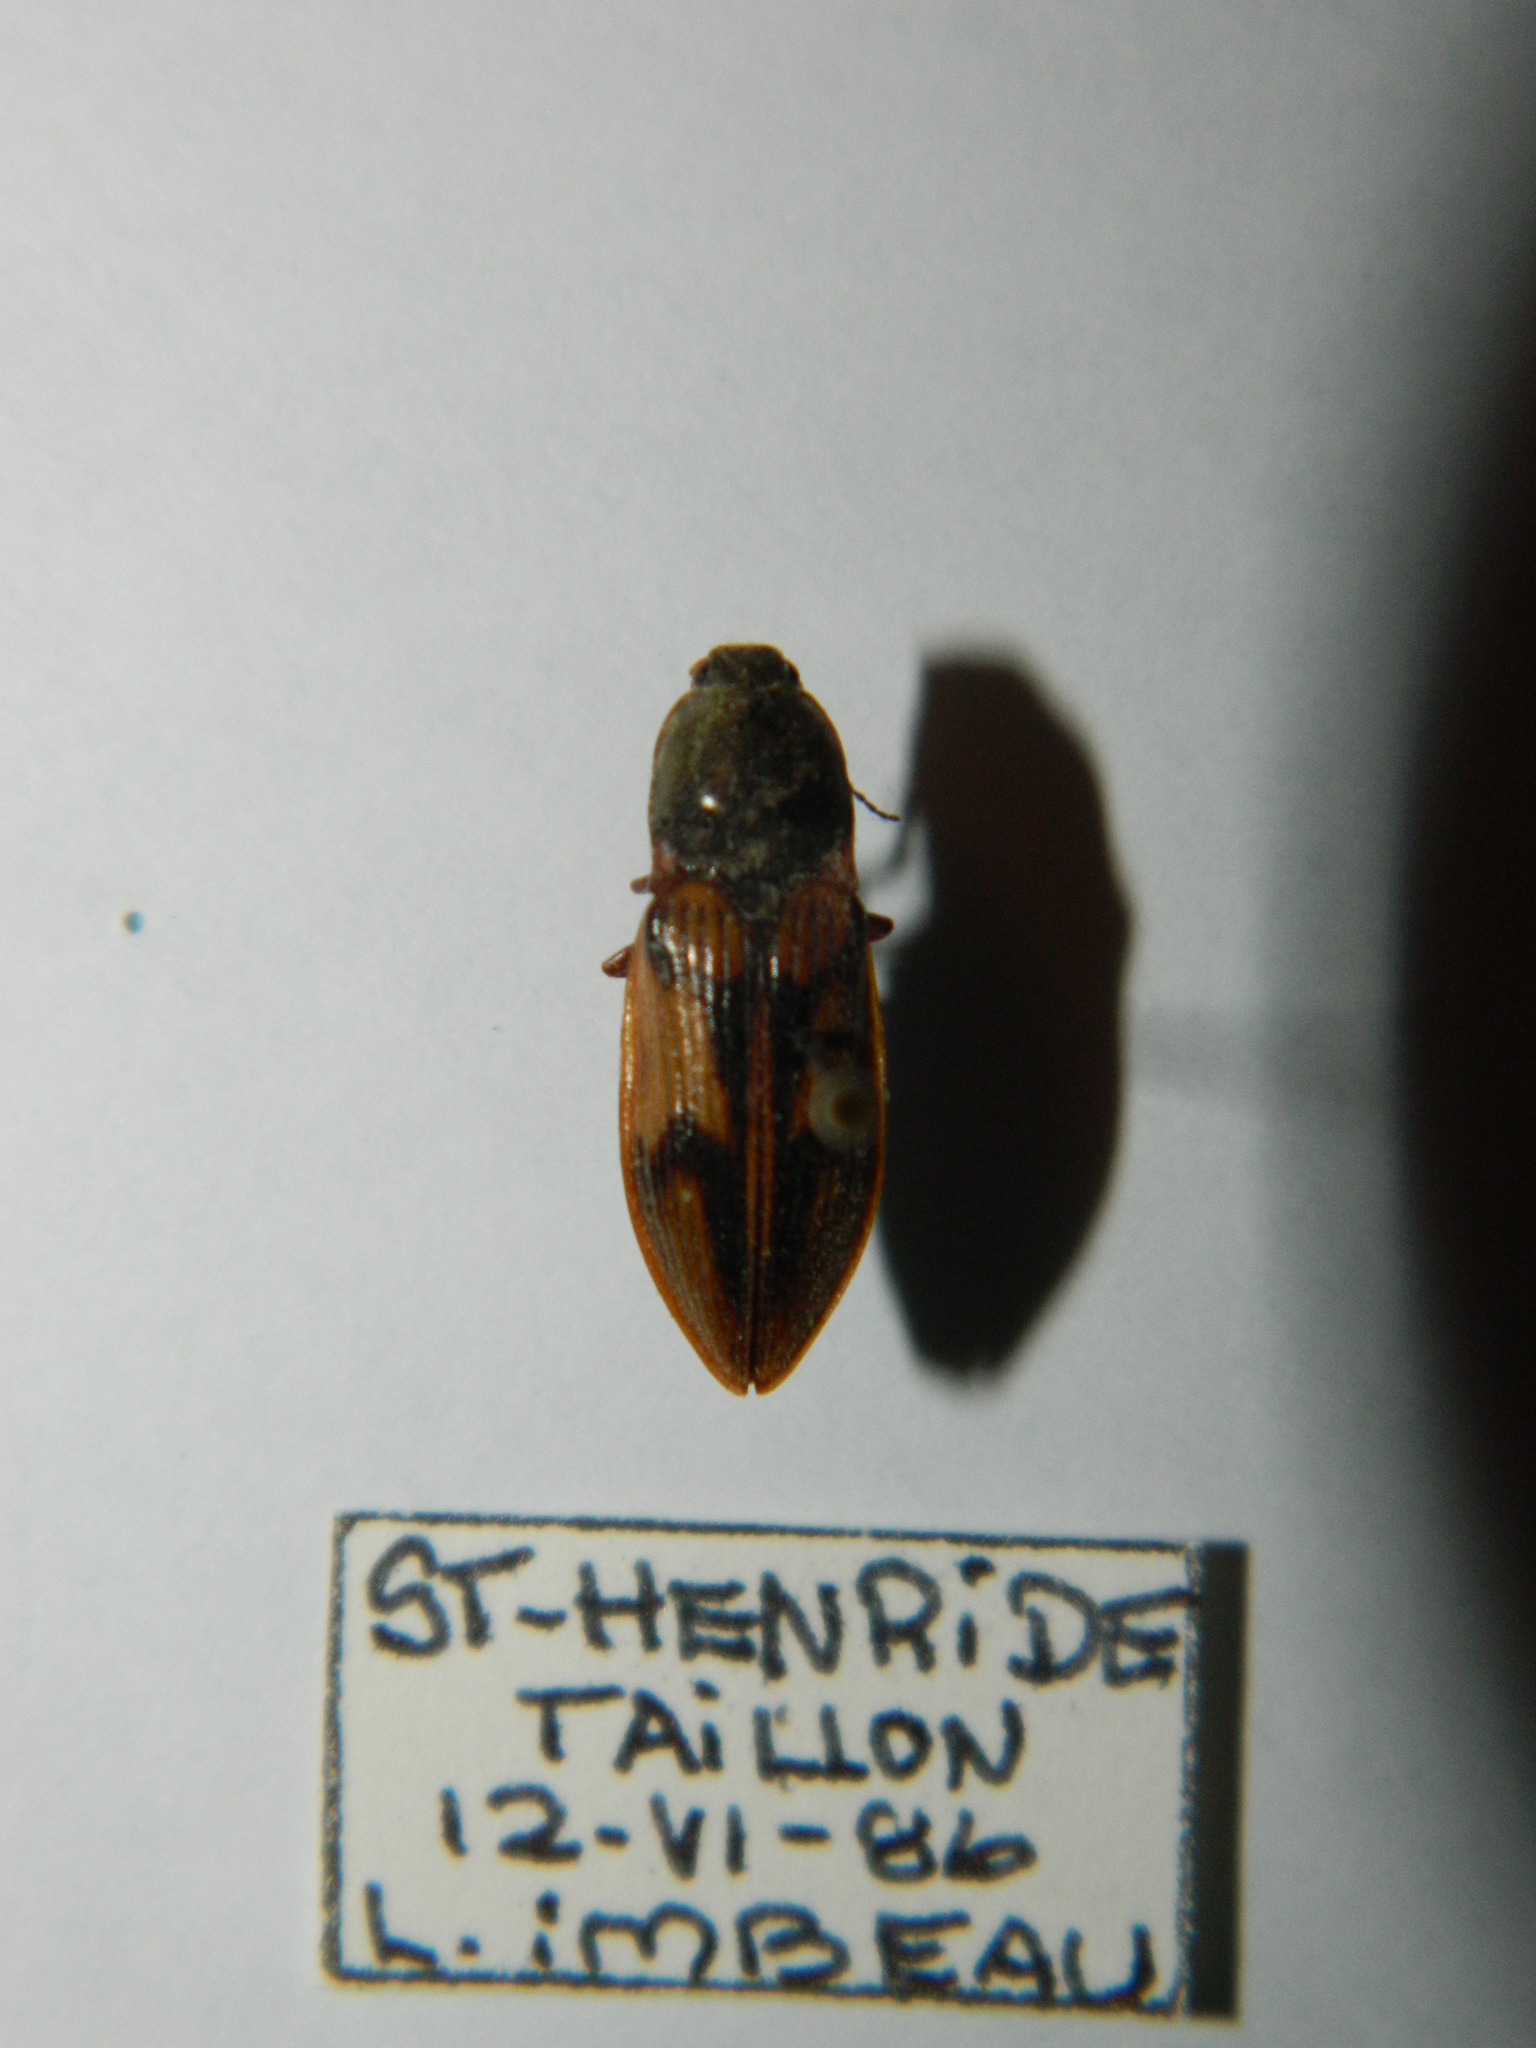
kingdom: Animalia
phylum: Arthropoda
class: Insecta
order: Coleoptera
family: Elateridae
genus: Stropenron
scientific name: Stropenron hieroglyphica
